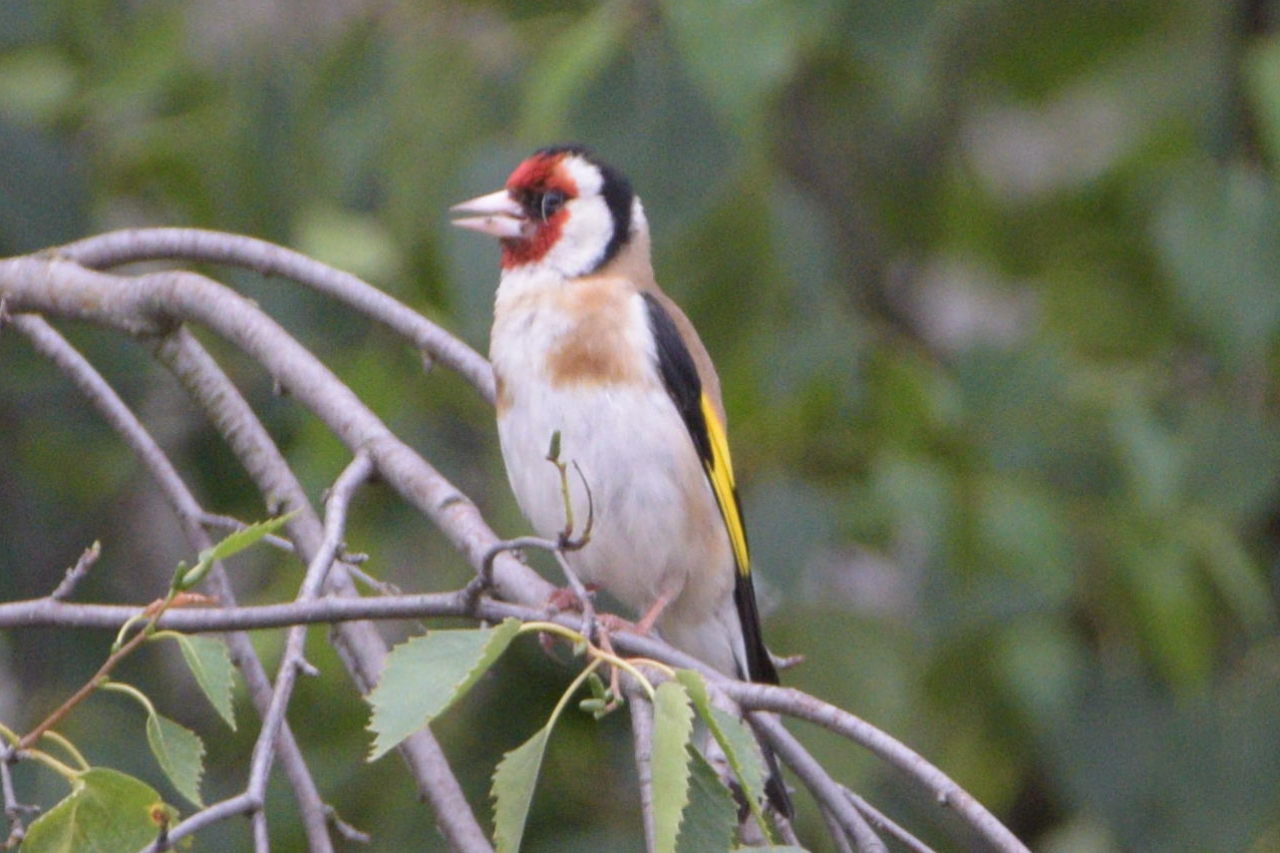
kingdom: Animalia
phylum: Chordata
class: Aves
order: Passeriformes
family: Fringillidae
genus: Carduelis
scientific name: Carduelis carduelis
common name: European goldfinch
